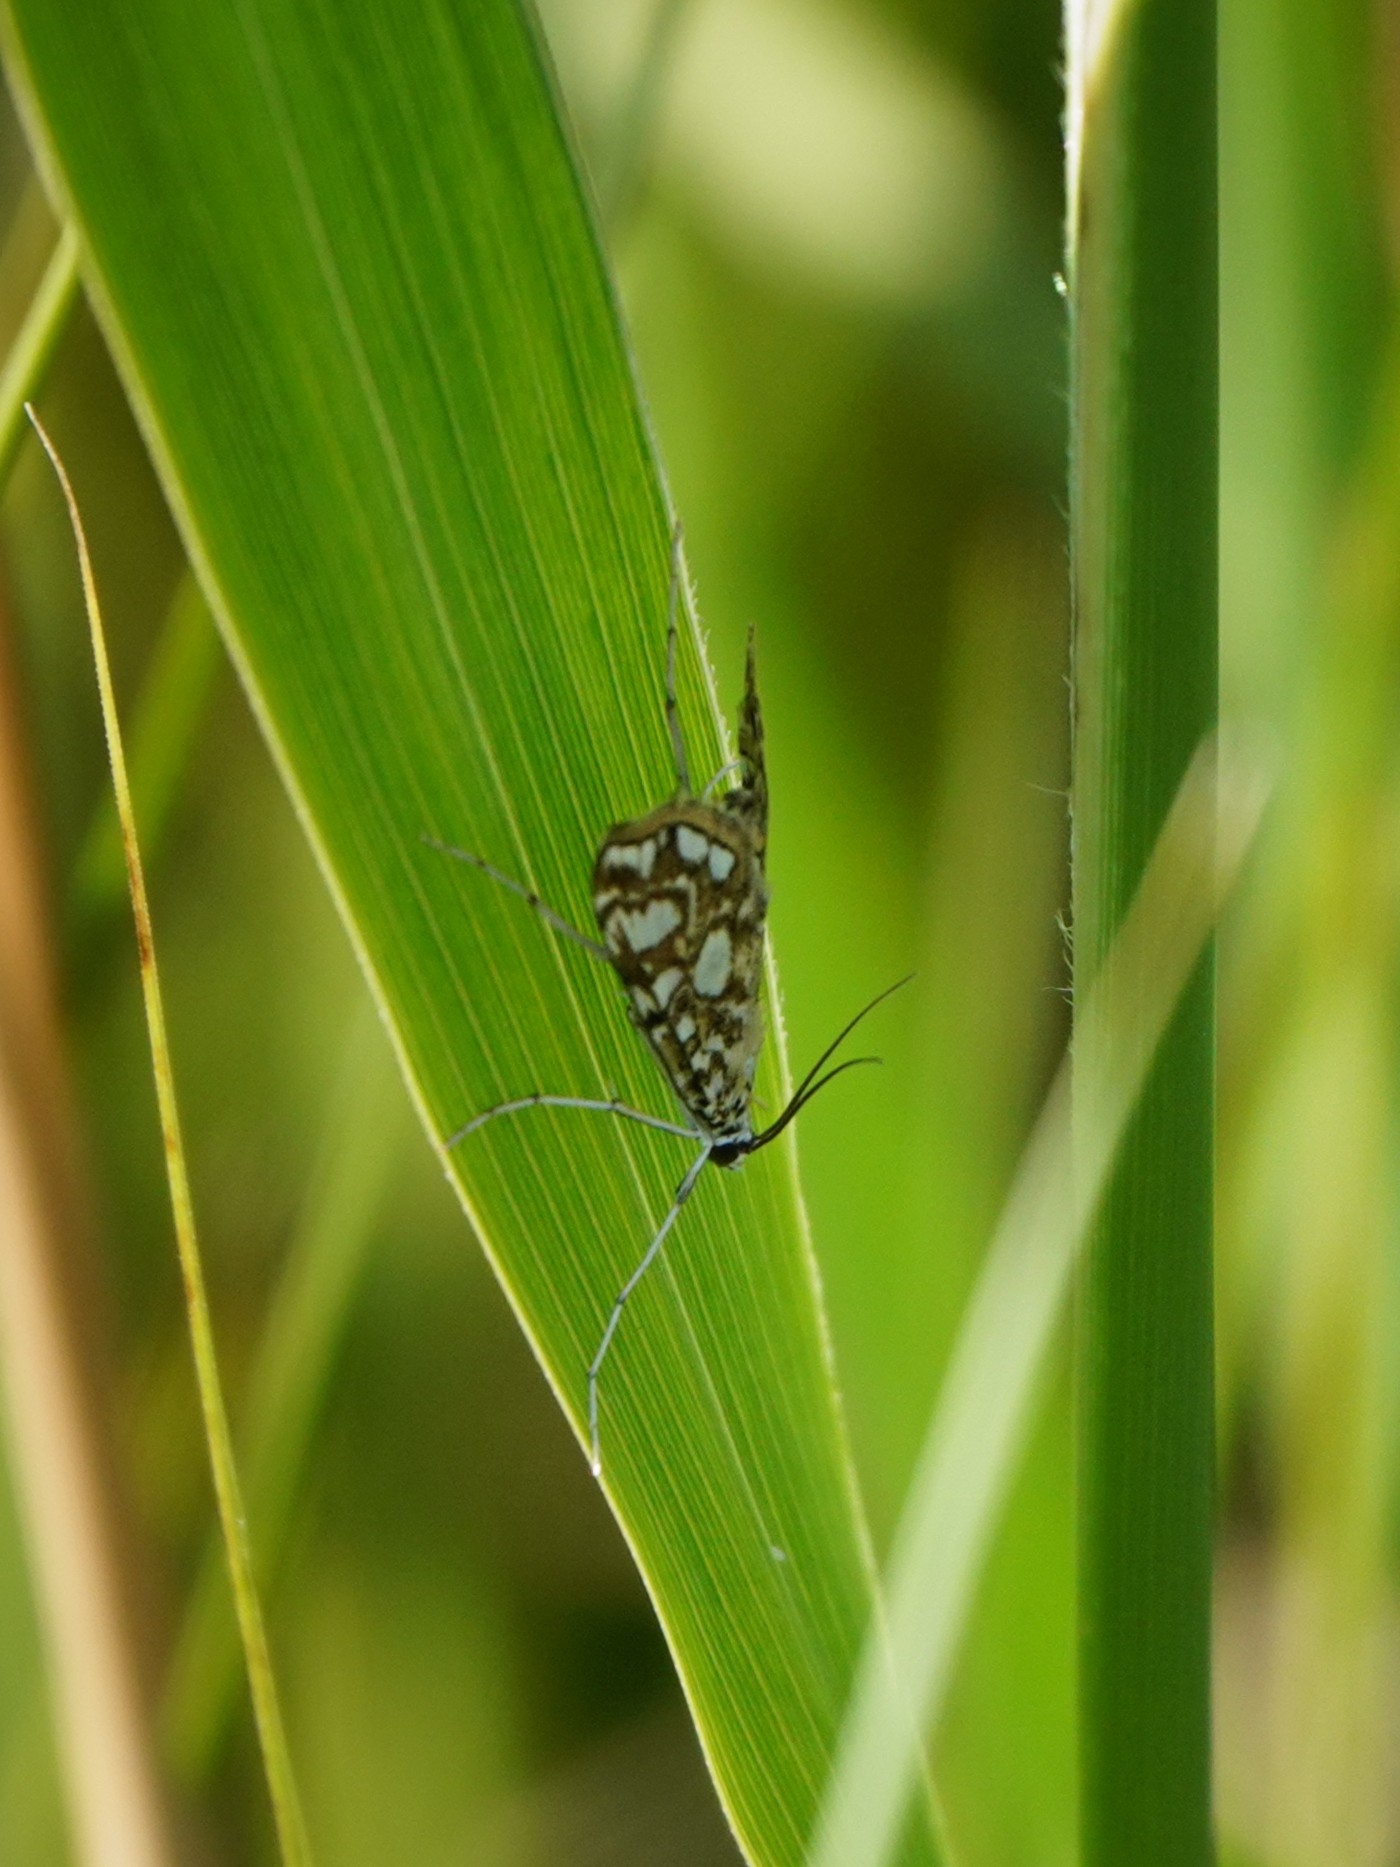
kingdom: Animalia
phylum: Arthropoda
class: Insecta
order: Lepidoptera
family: Crambidae
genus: Elophila
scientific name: Elophila nymphaeata
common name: Brown china-mark
